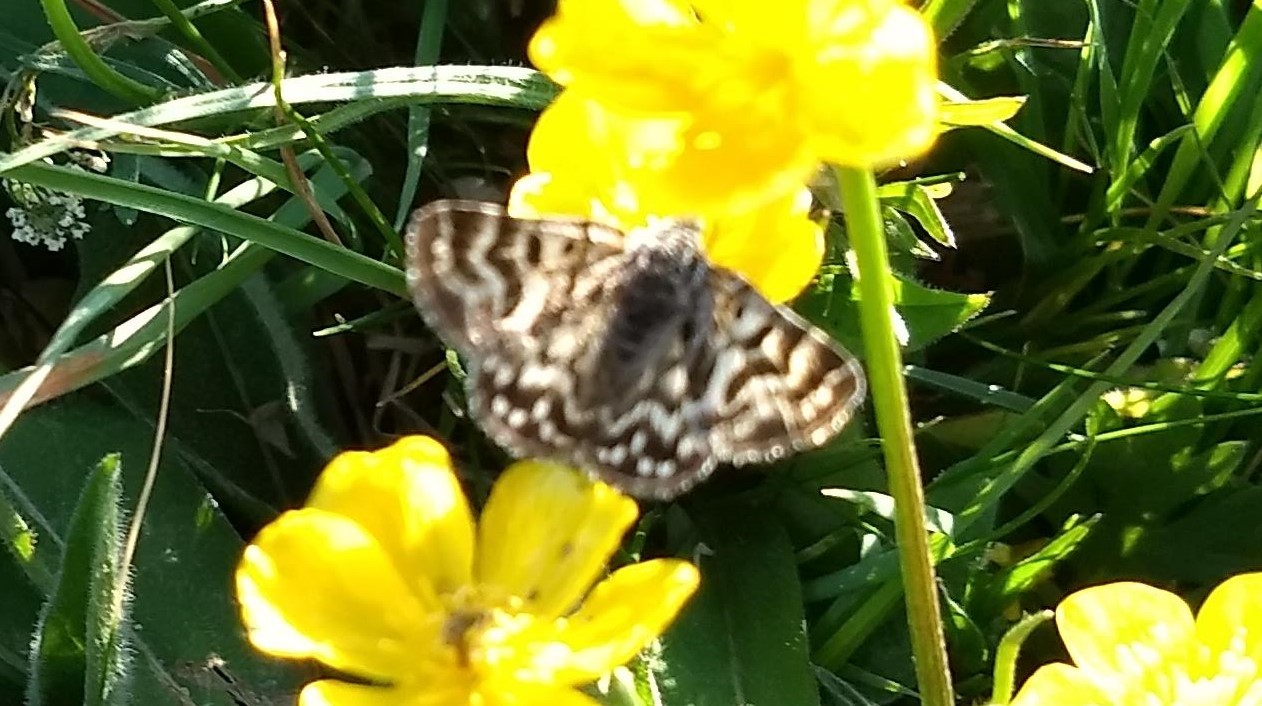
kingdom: Animalia
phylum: Arthropoda
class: Insecta
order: Lepidoptera
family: Erebidae
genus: Callistege
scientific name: Callistege mi
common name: Mother shipton
